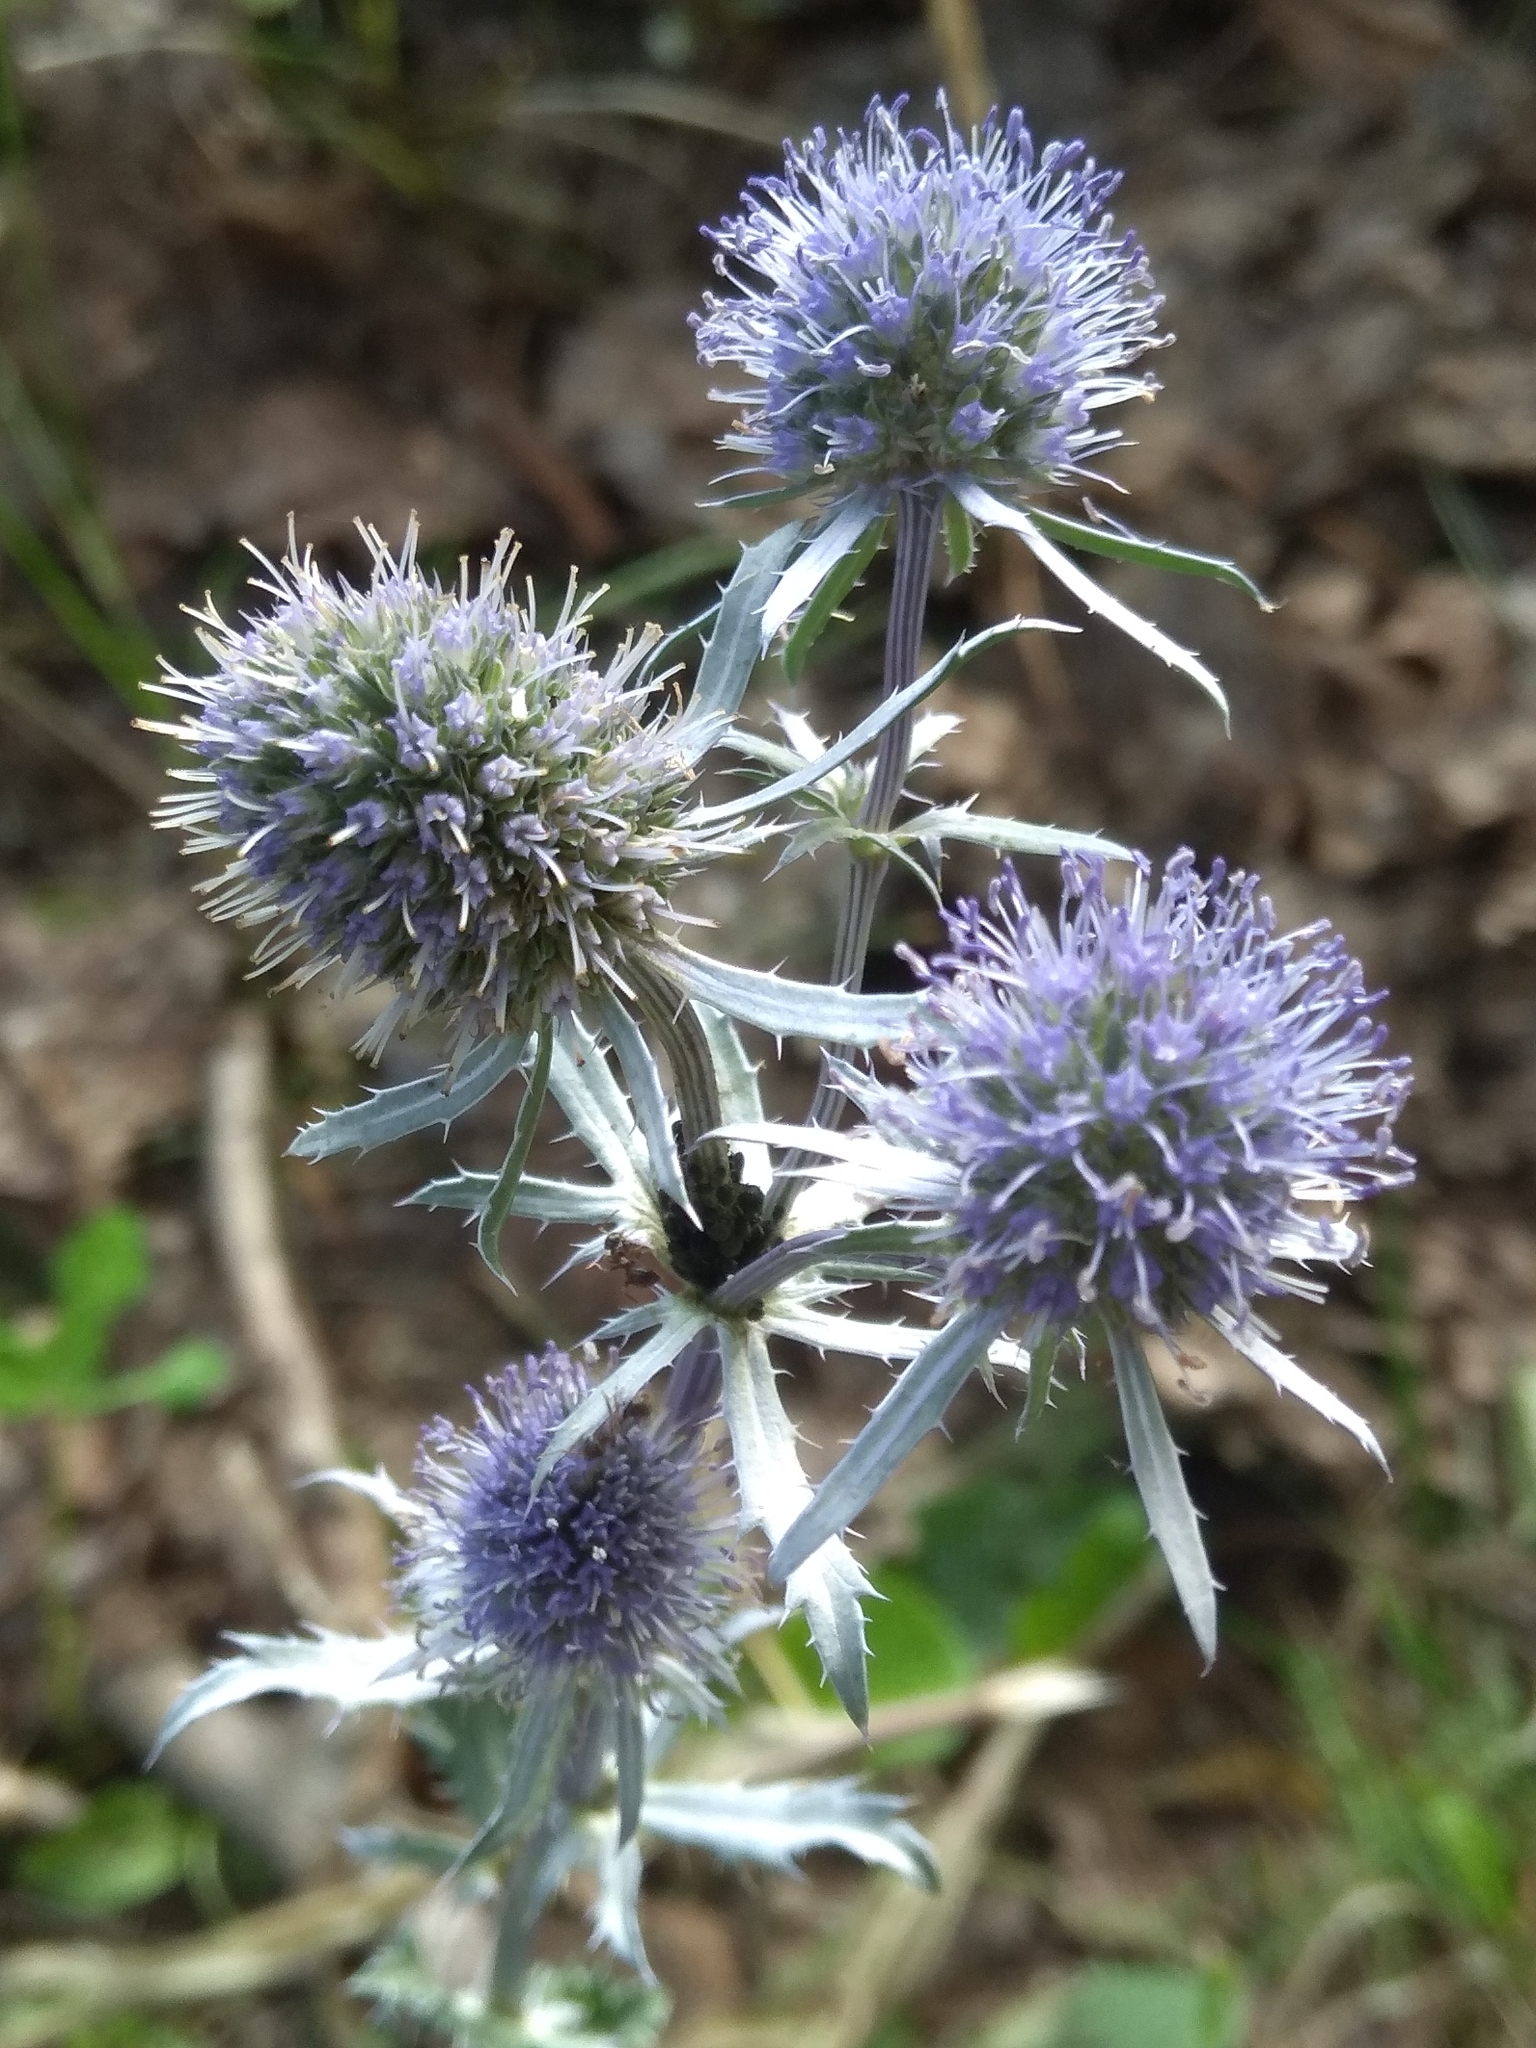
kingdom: Plantae
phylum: Tracheophyta
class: Magnoliopsida
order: Apiales
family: Apiaceae
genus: Eryngium
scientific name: Eryngium planum
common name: Blue eryngo
